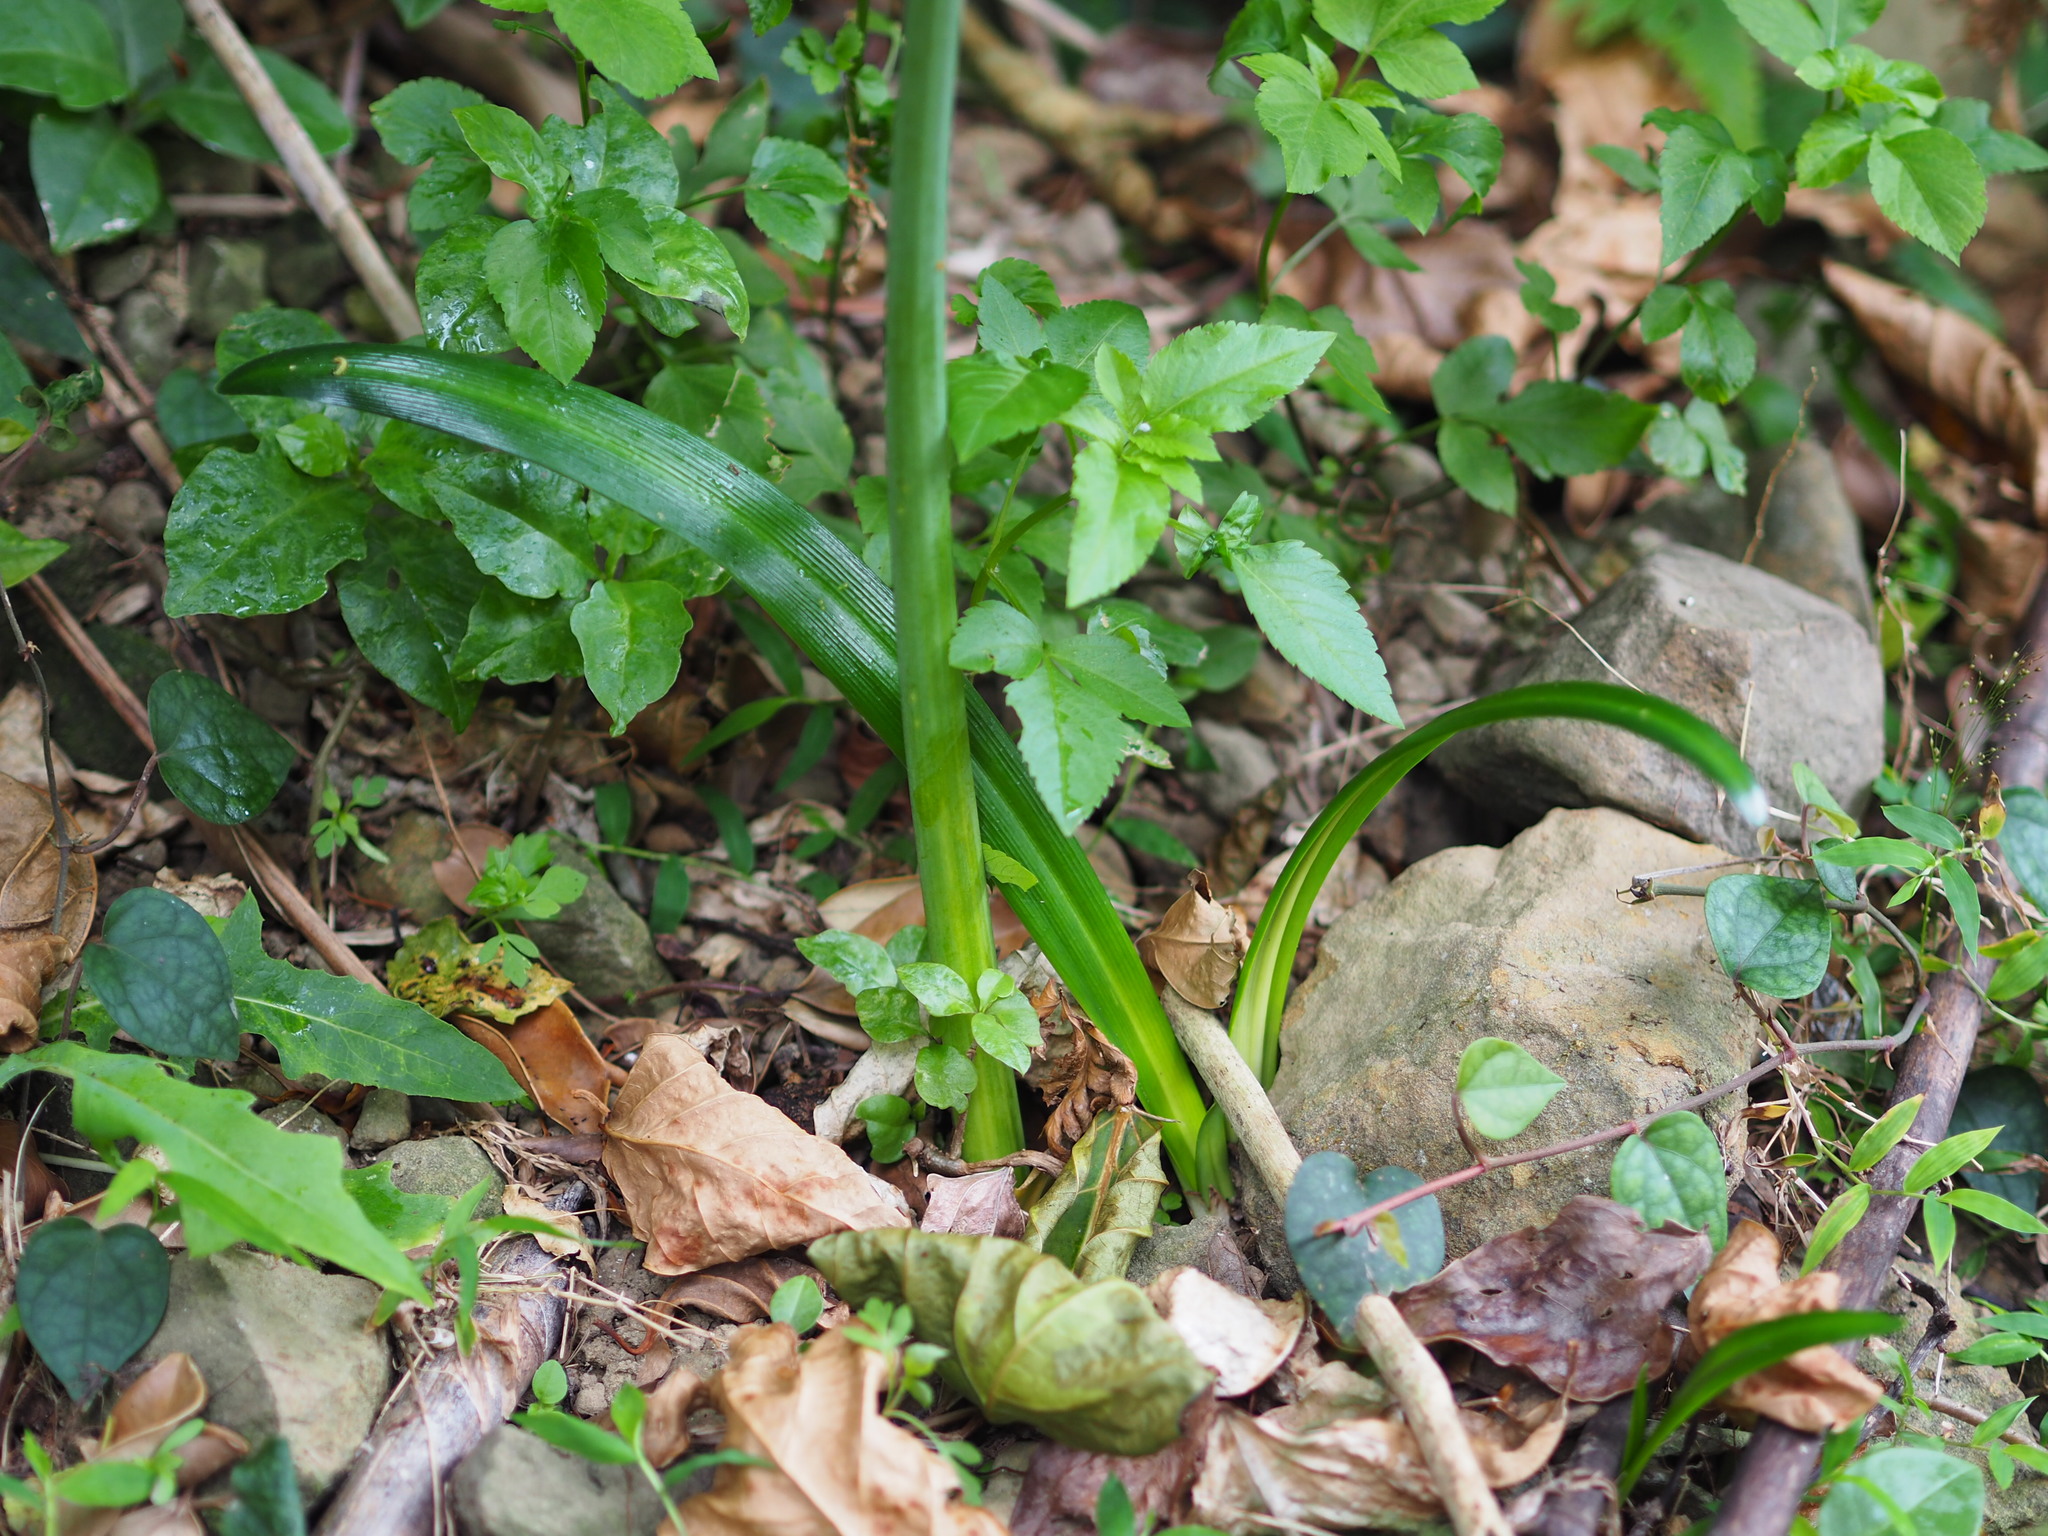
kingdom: Plantae
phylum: Tracheophyta
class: Liliopsida
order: Asparagales
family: Amaryllidaceae
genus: Lycoris
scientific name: Lycoris aurea
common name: Golden hurricane-lily
